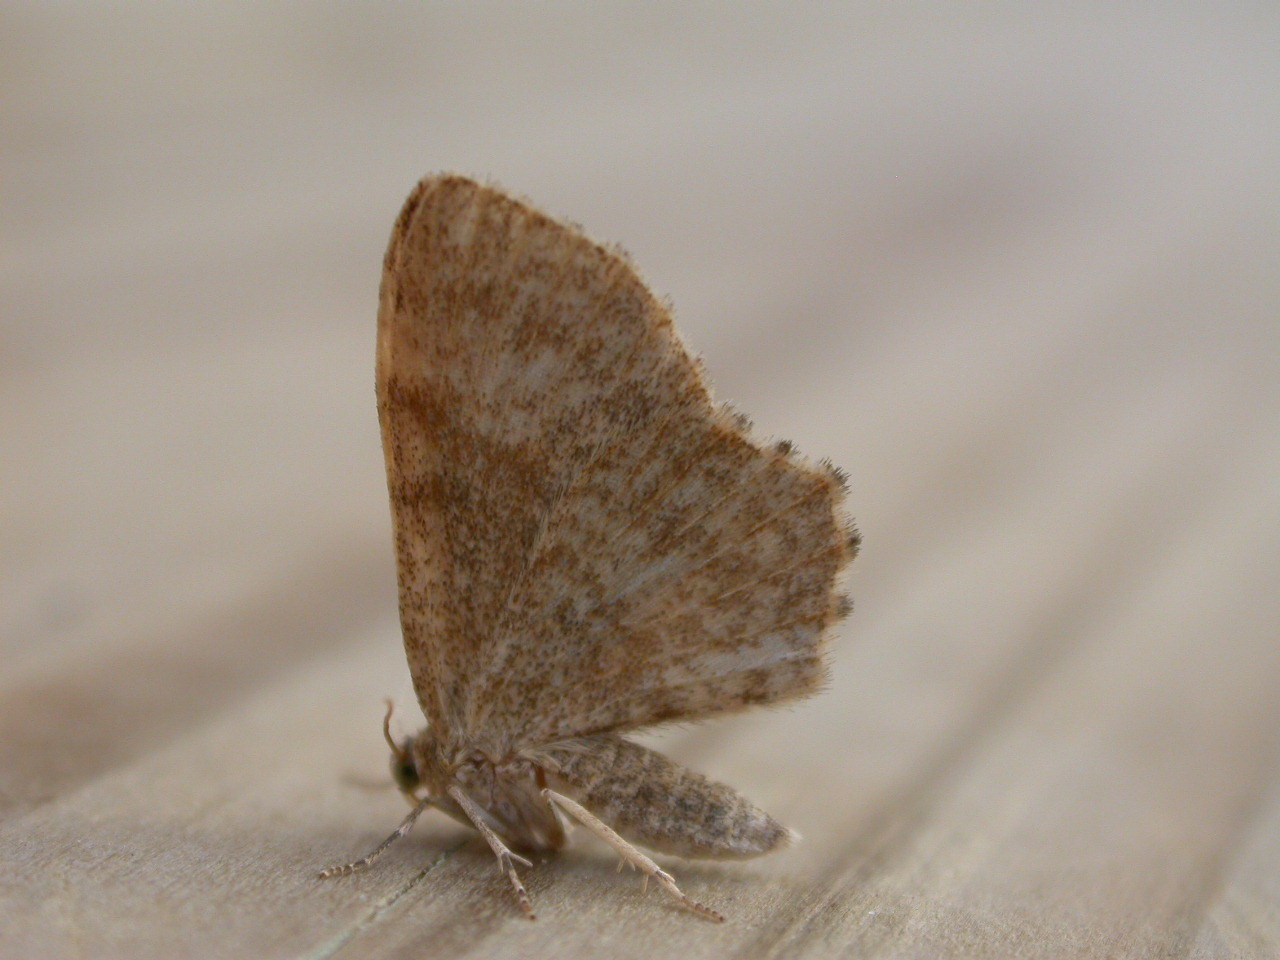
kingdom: Animalia
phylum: Arthropoda
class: Insecta
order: Lepidoptera
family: Geometridae
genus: Euchoeca
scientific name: Euchoeca nebulata
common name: Dingy shell
